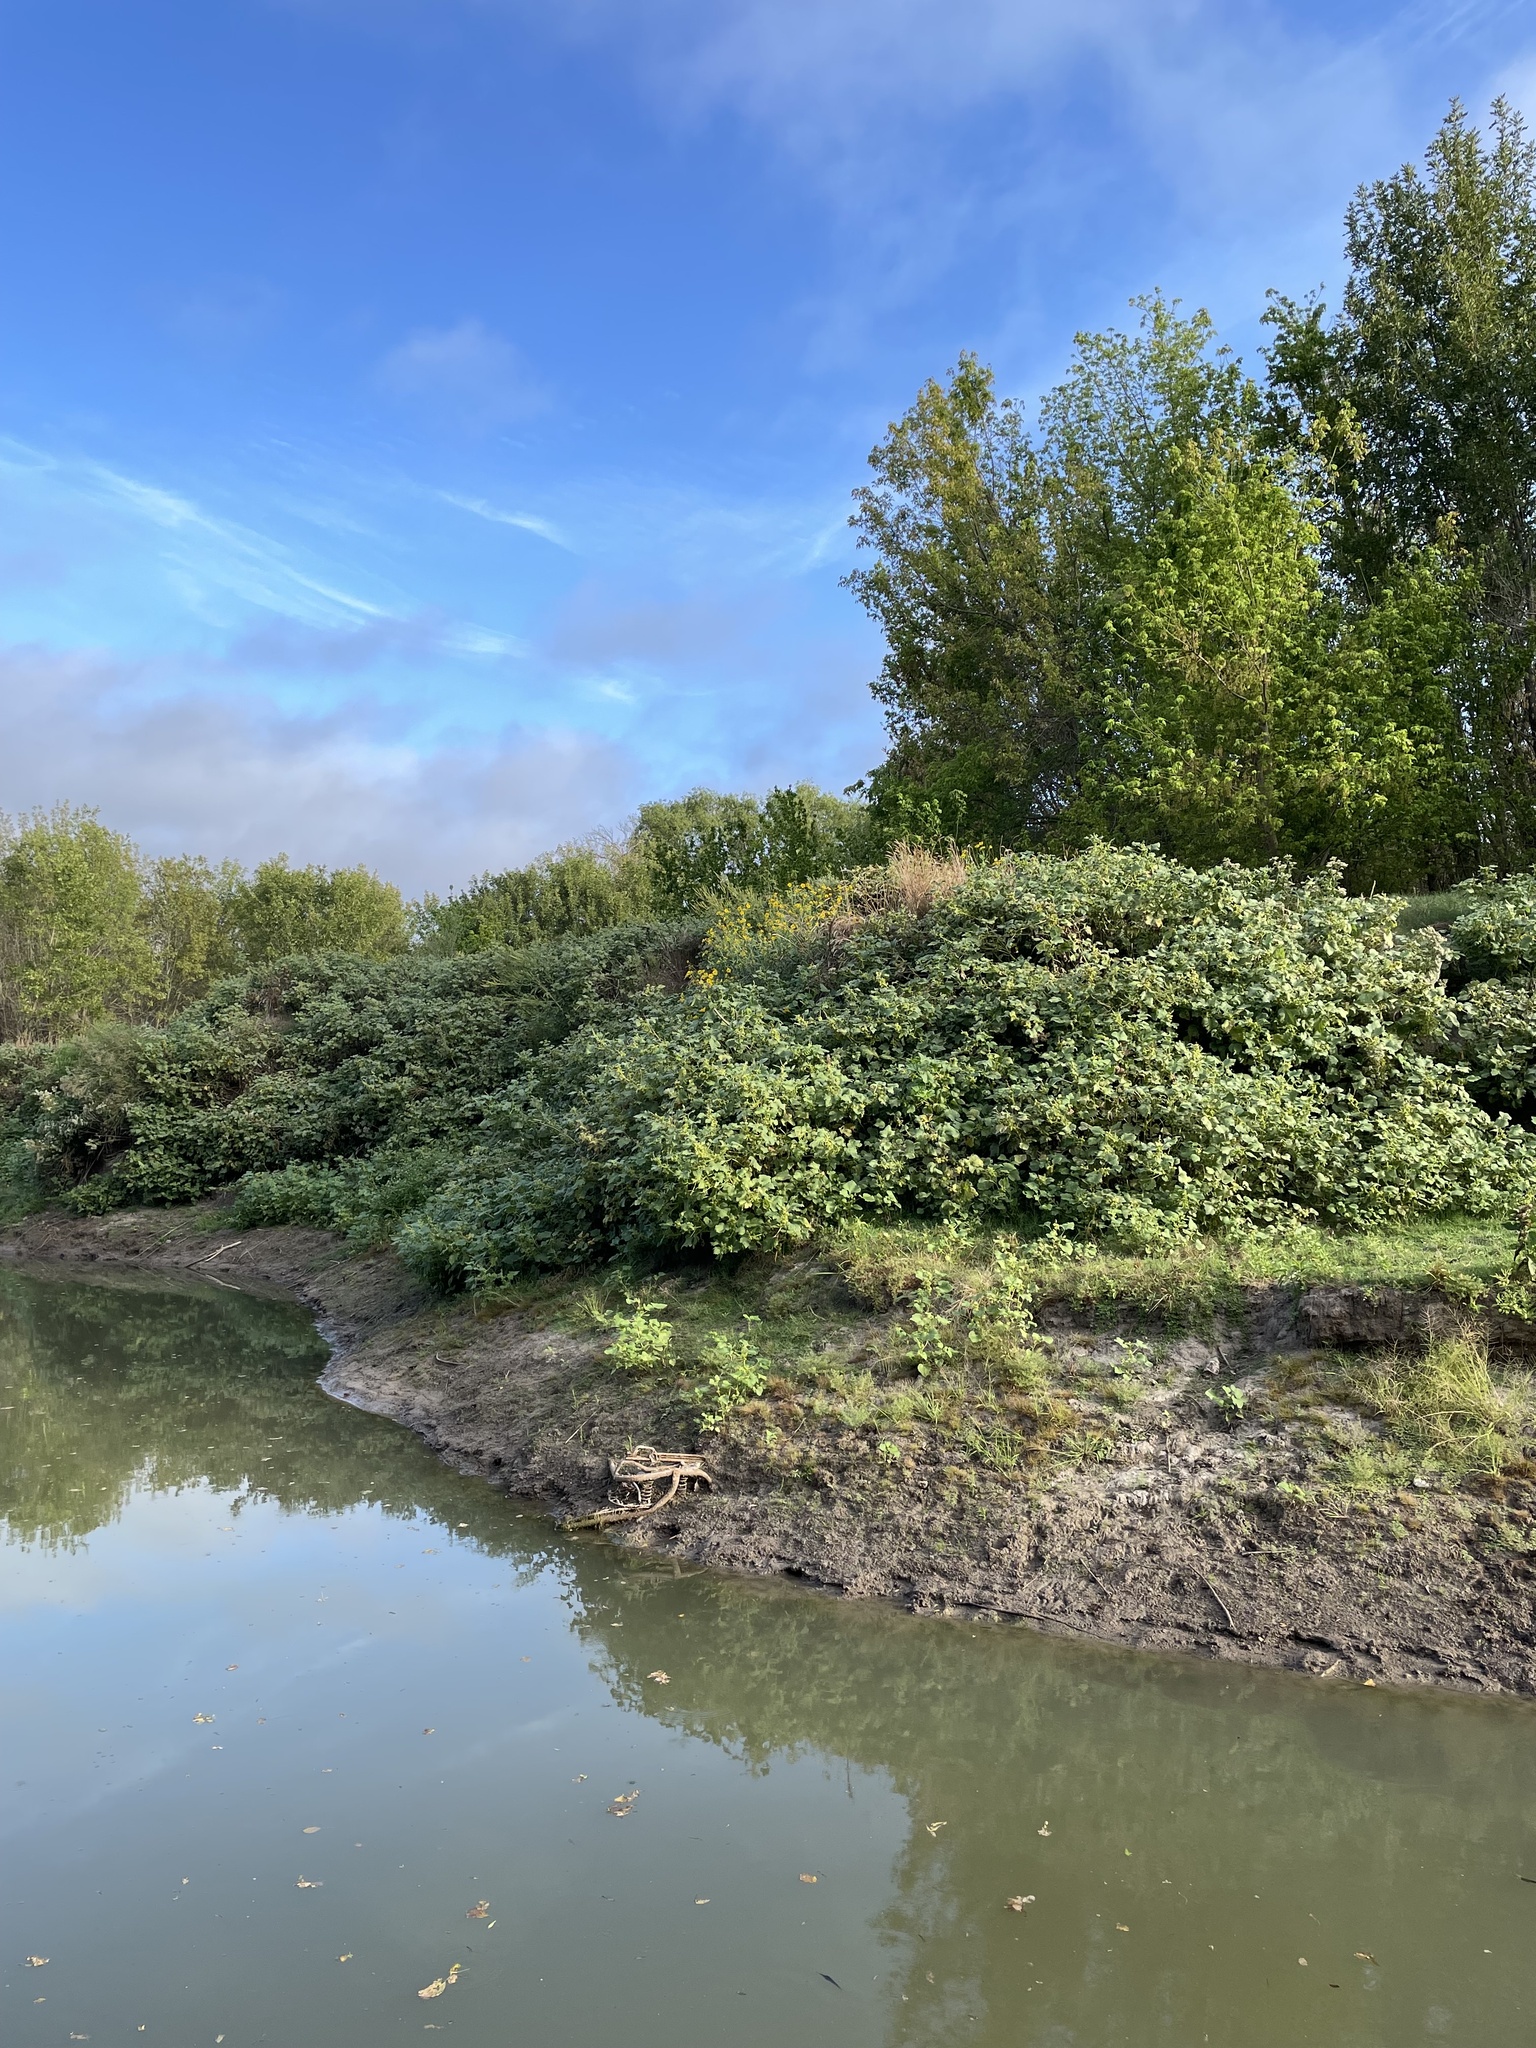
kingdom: Plantae
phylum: Tracheophyta
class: Magnoliopsida
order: Asterales
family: Asteraceae
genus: Verbesina
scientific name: Verbesina encelioides
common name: Golden crownbeard
